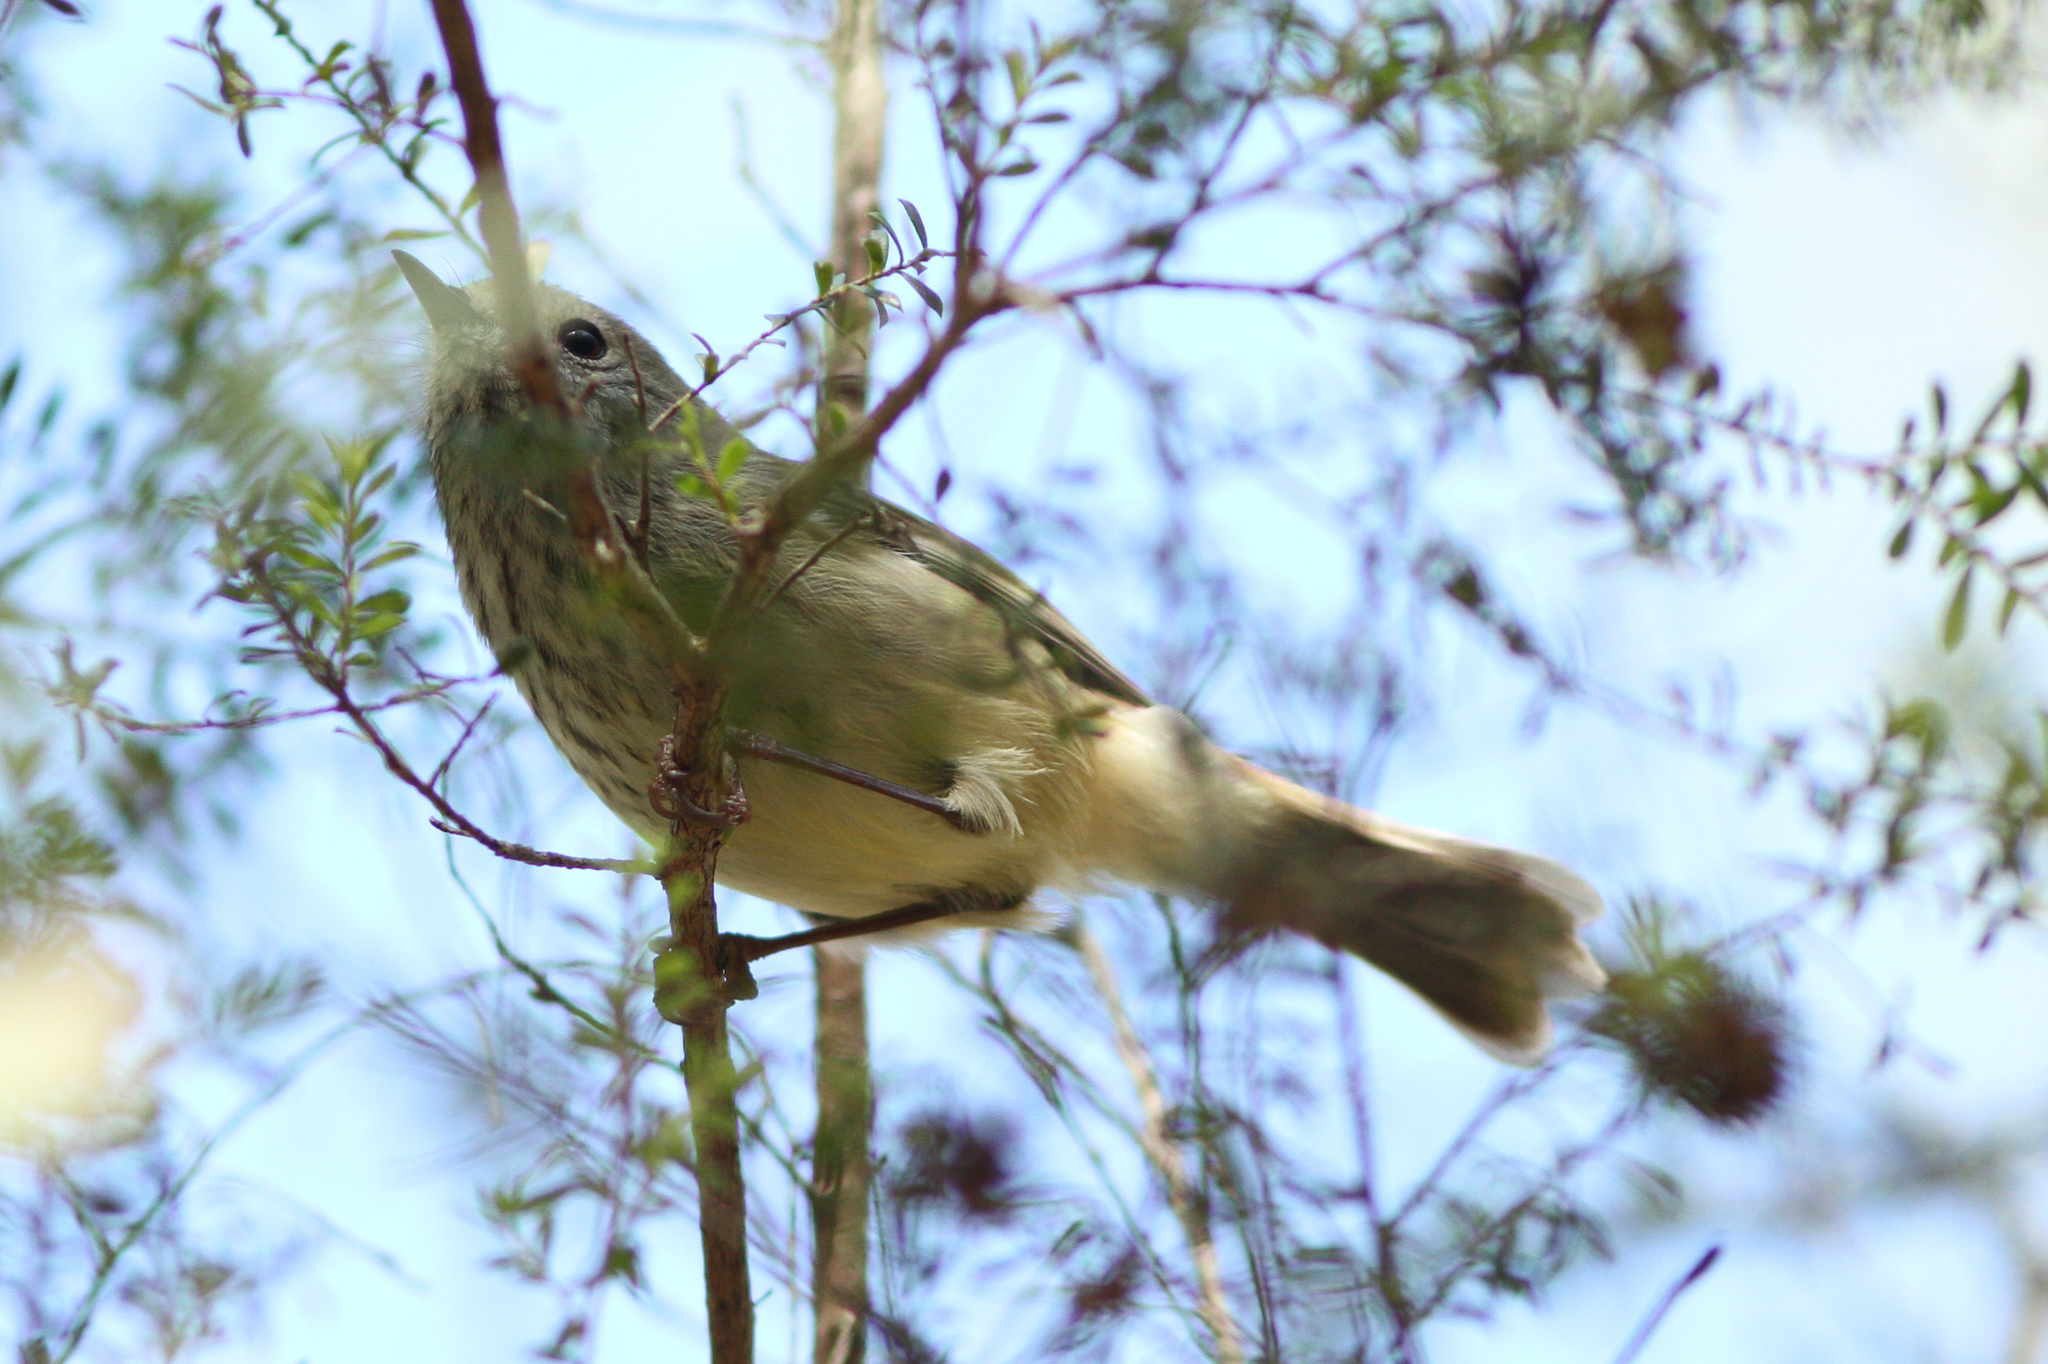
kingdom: Animalia
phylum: Chordata
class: Aves
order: Passeriformes
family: Acanthizidae
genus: Acanthiza
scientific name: Acanthiza pusilla
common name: Brown thornbill
